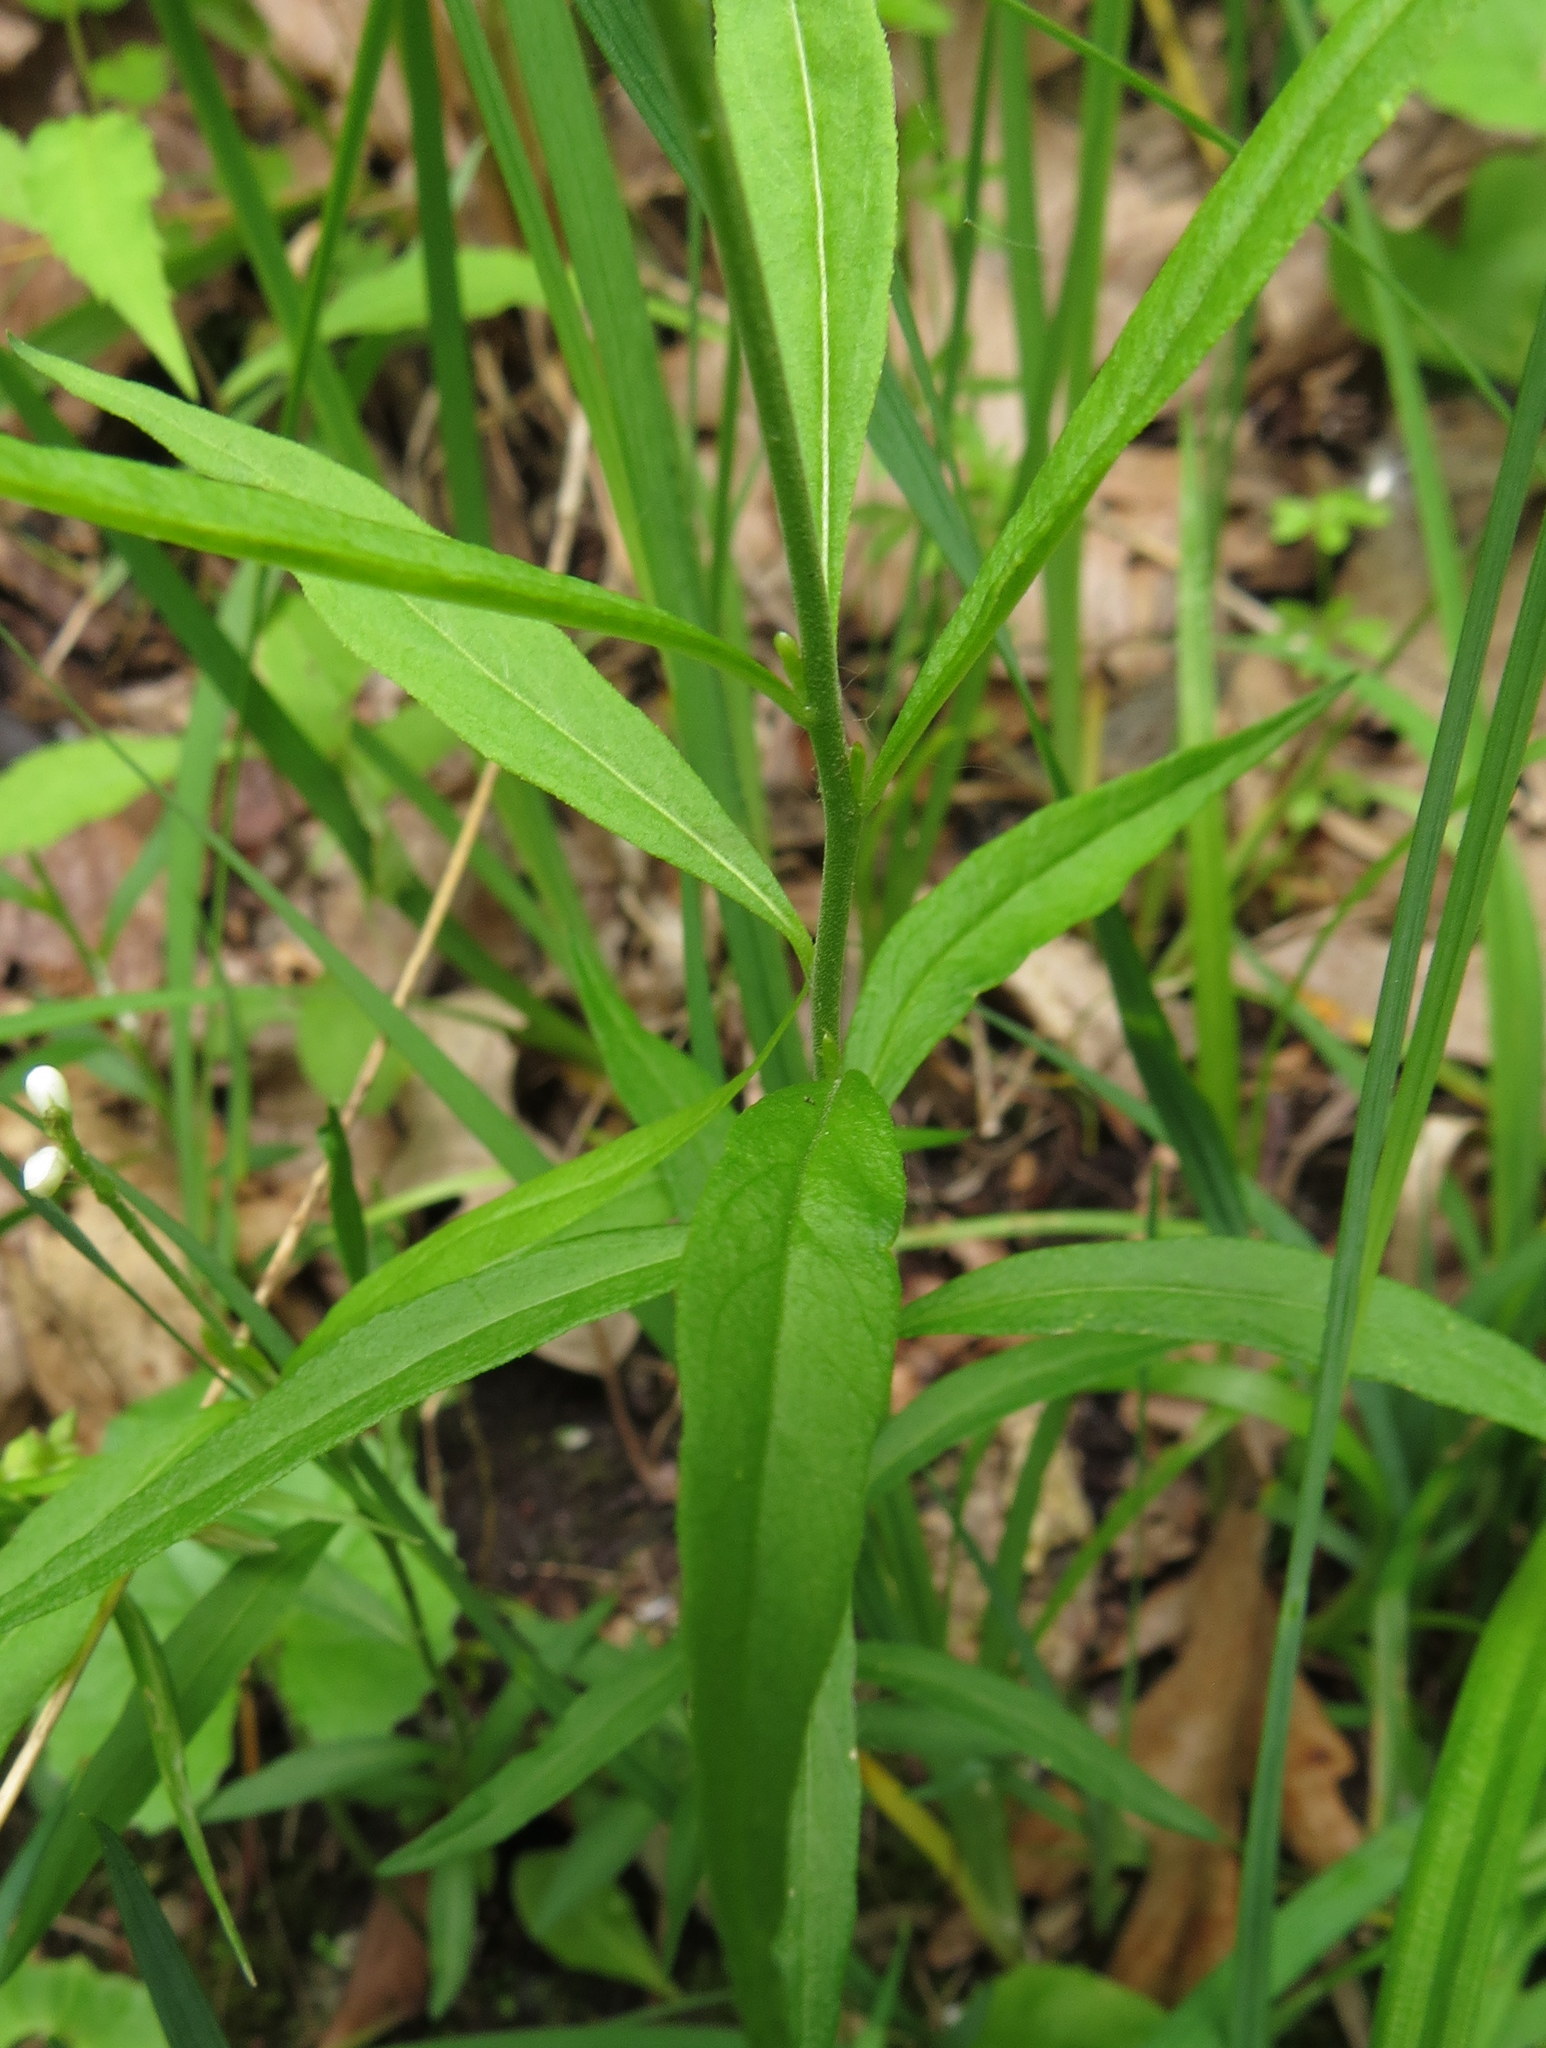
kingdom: Plantae
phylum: Tracheophyta
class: Magnoliopsida
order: Fabales
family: Polygalaceae
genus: Polygala
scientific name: Polygala senega
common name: Seneca snakeroot
